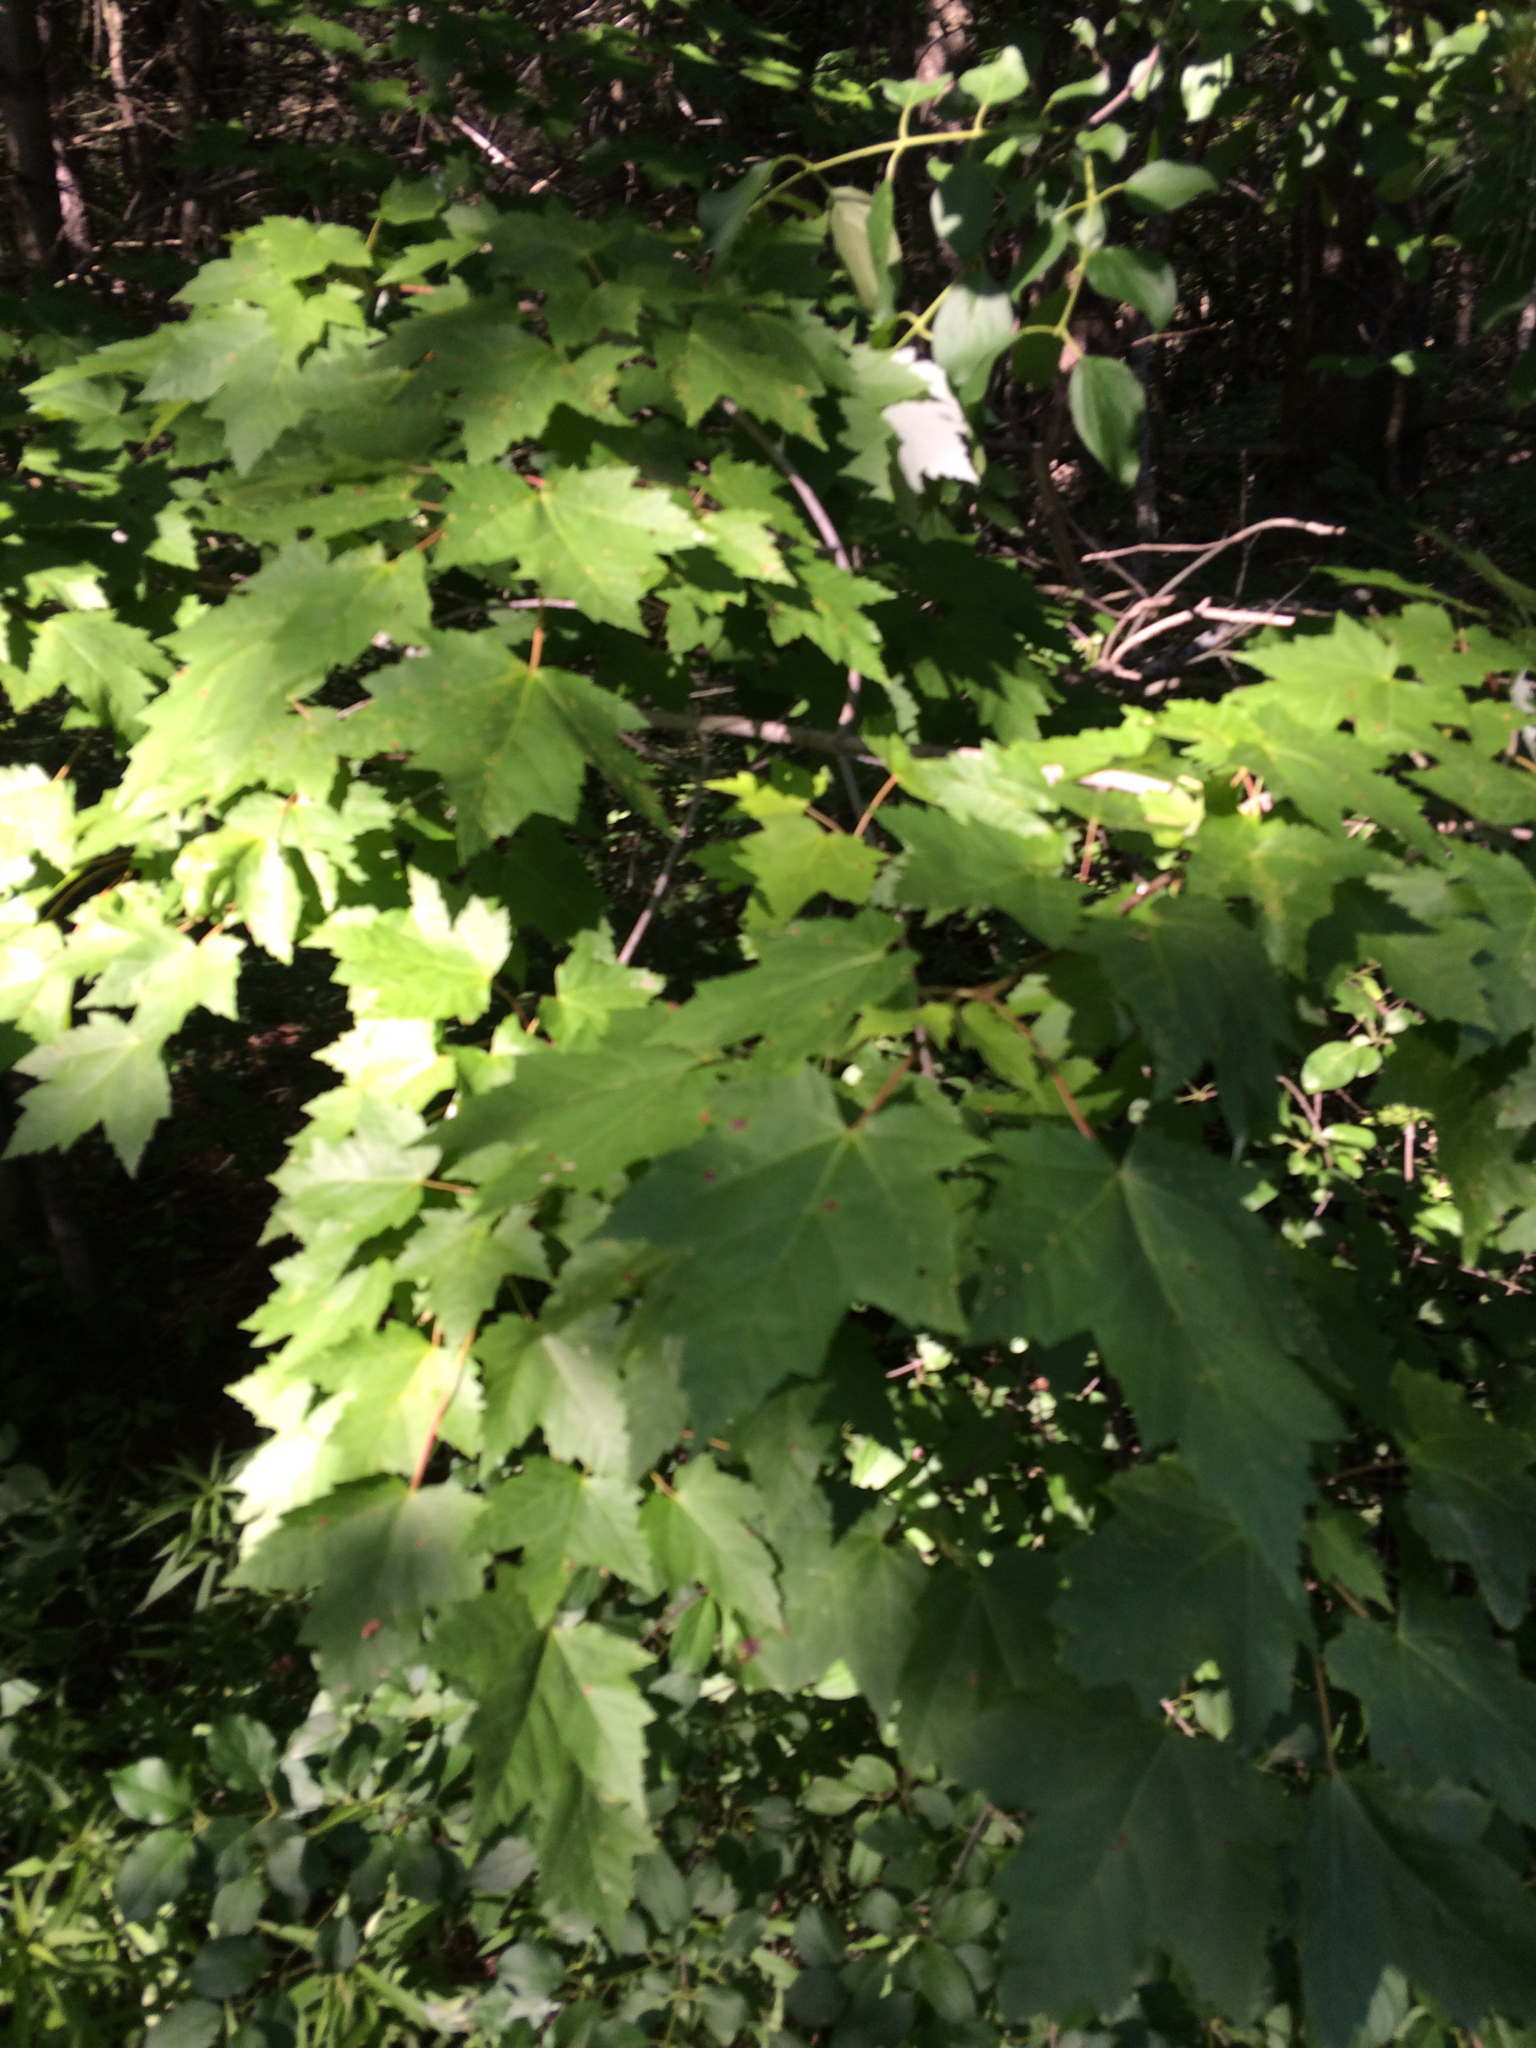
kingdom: Plantae
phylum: Tracheophyta
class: Magnoliopsida
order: Sapindales
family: Sapindaceae
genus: Acer
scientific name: Acer rubrum
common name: Red maple
